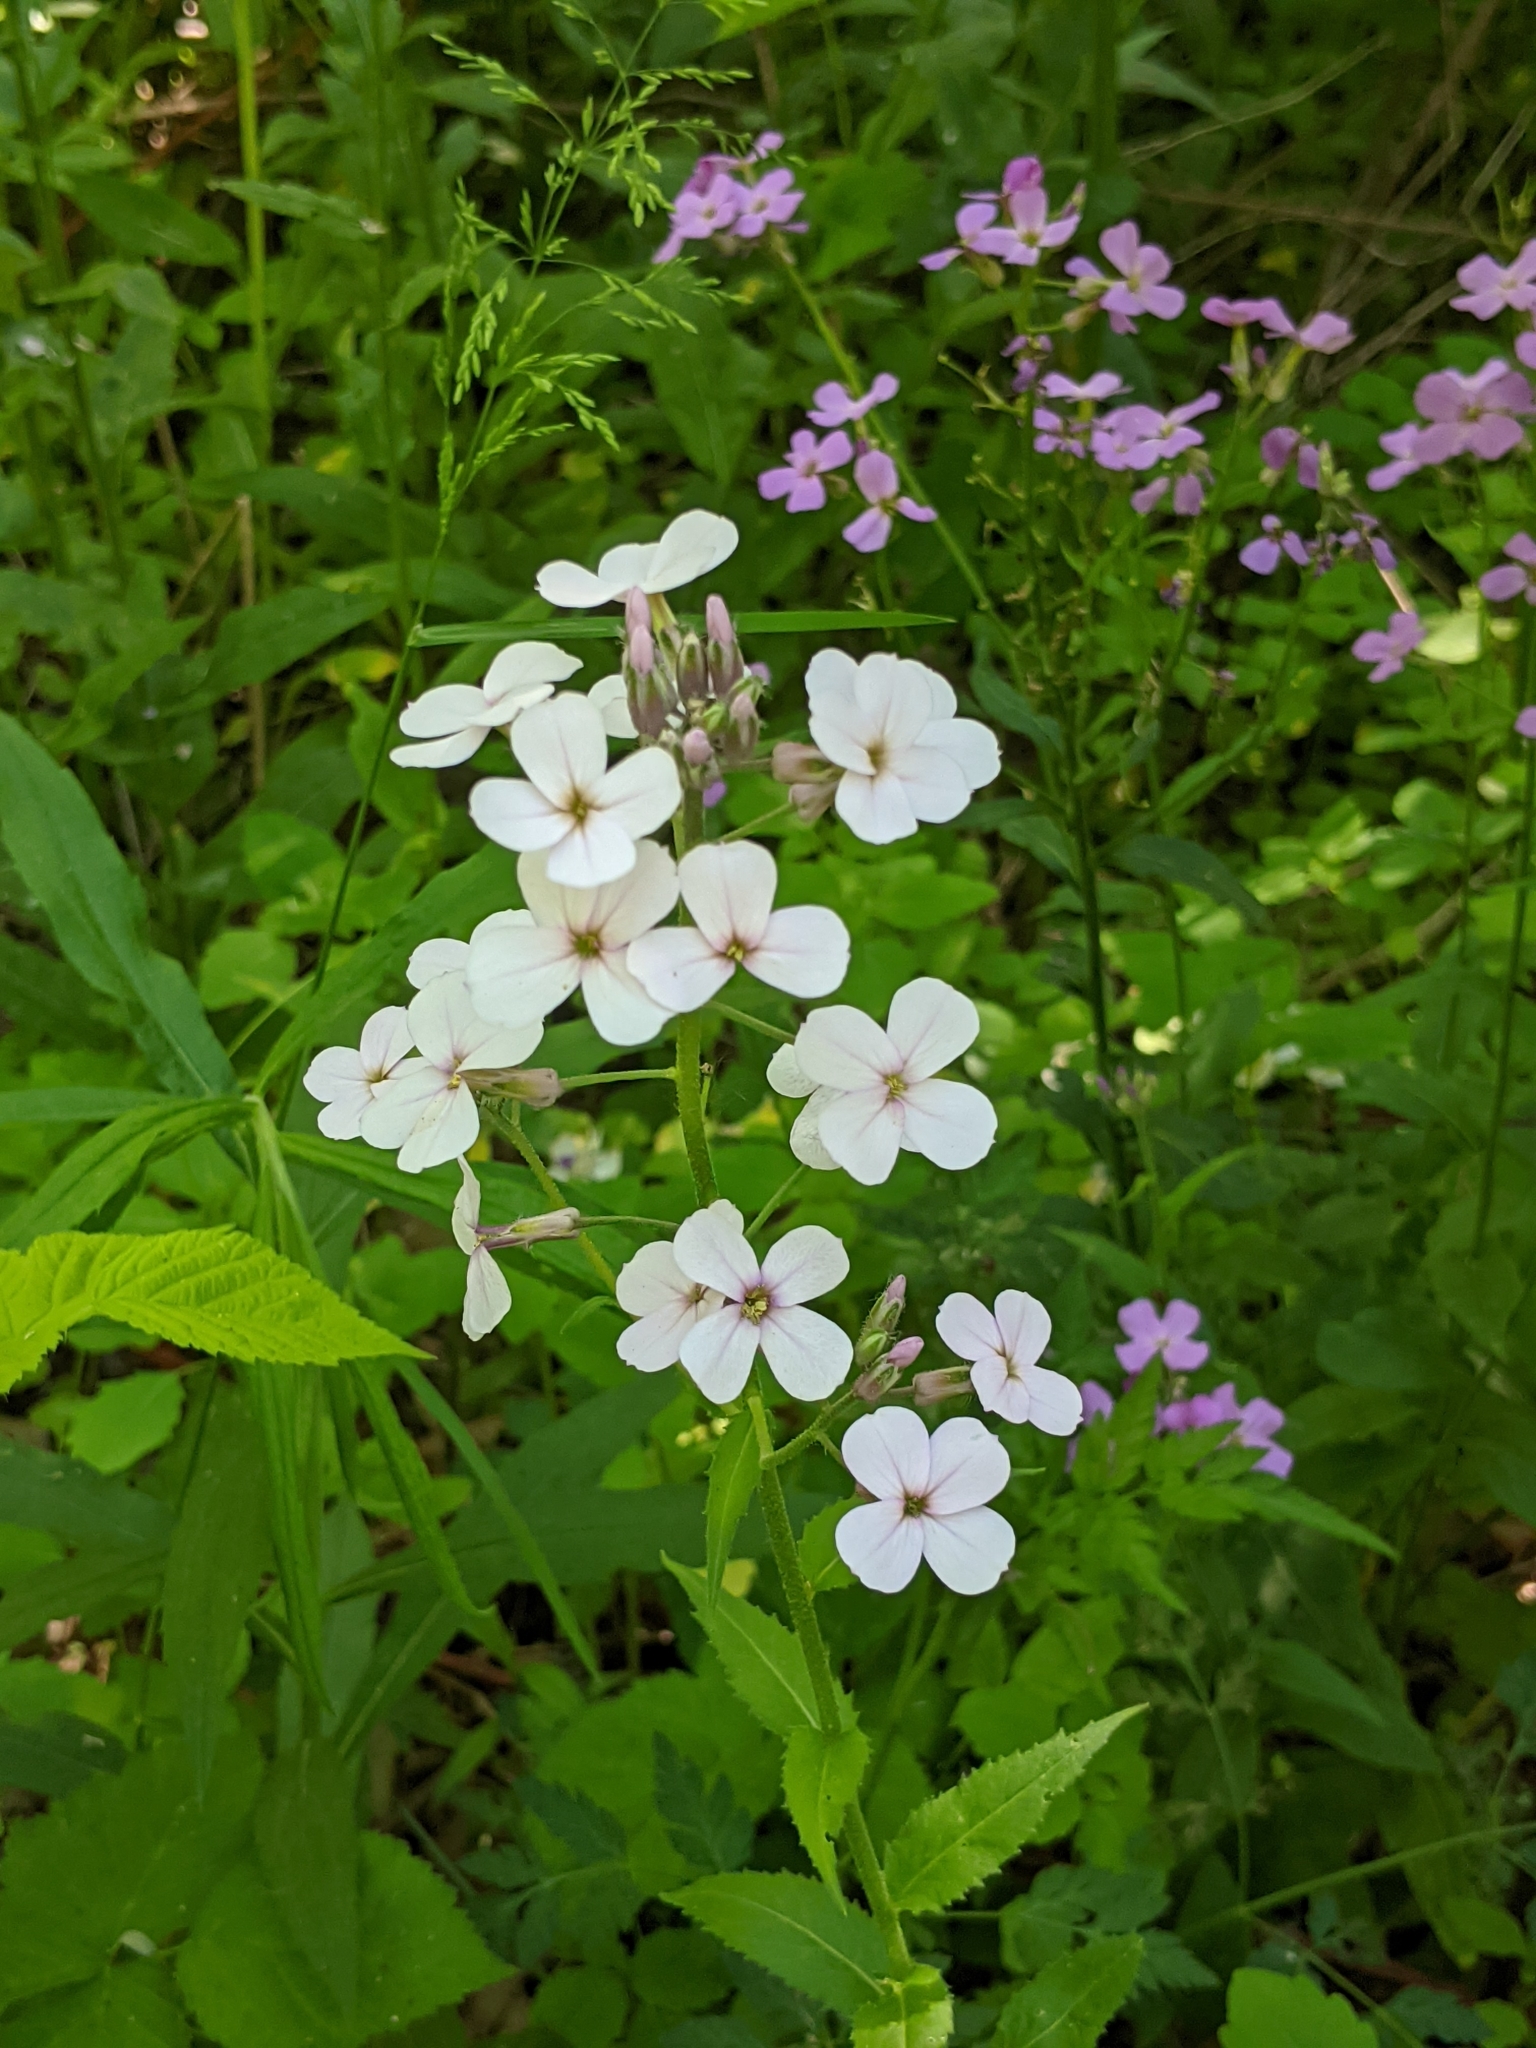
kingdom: Plantae
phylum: Tracheophyta
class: Magnoliopsida
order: Brassicales
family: Brassicaceae
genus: Hesperis
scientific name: Hesperis matronalis
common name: Dame's-violet
